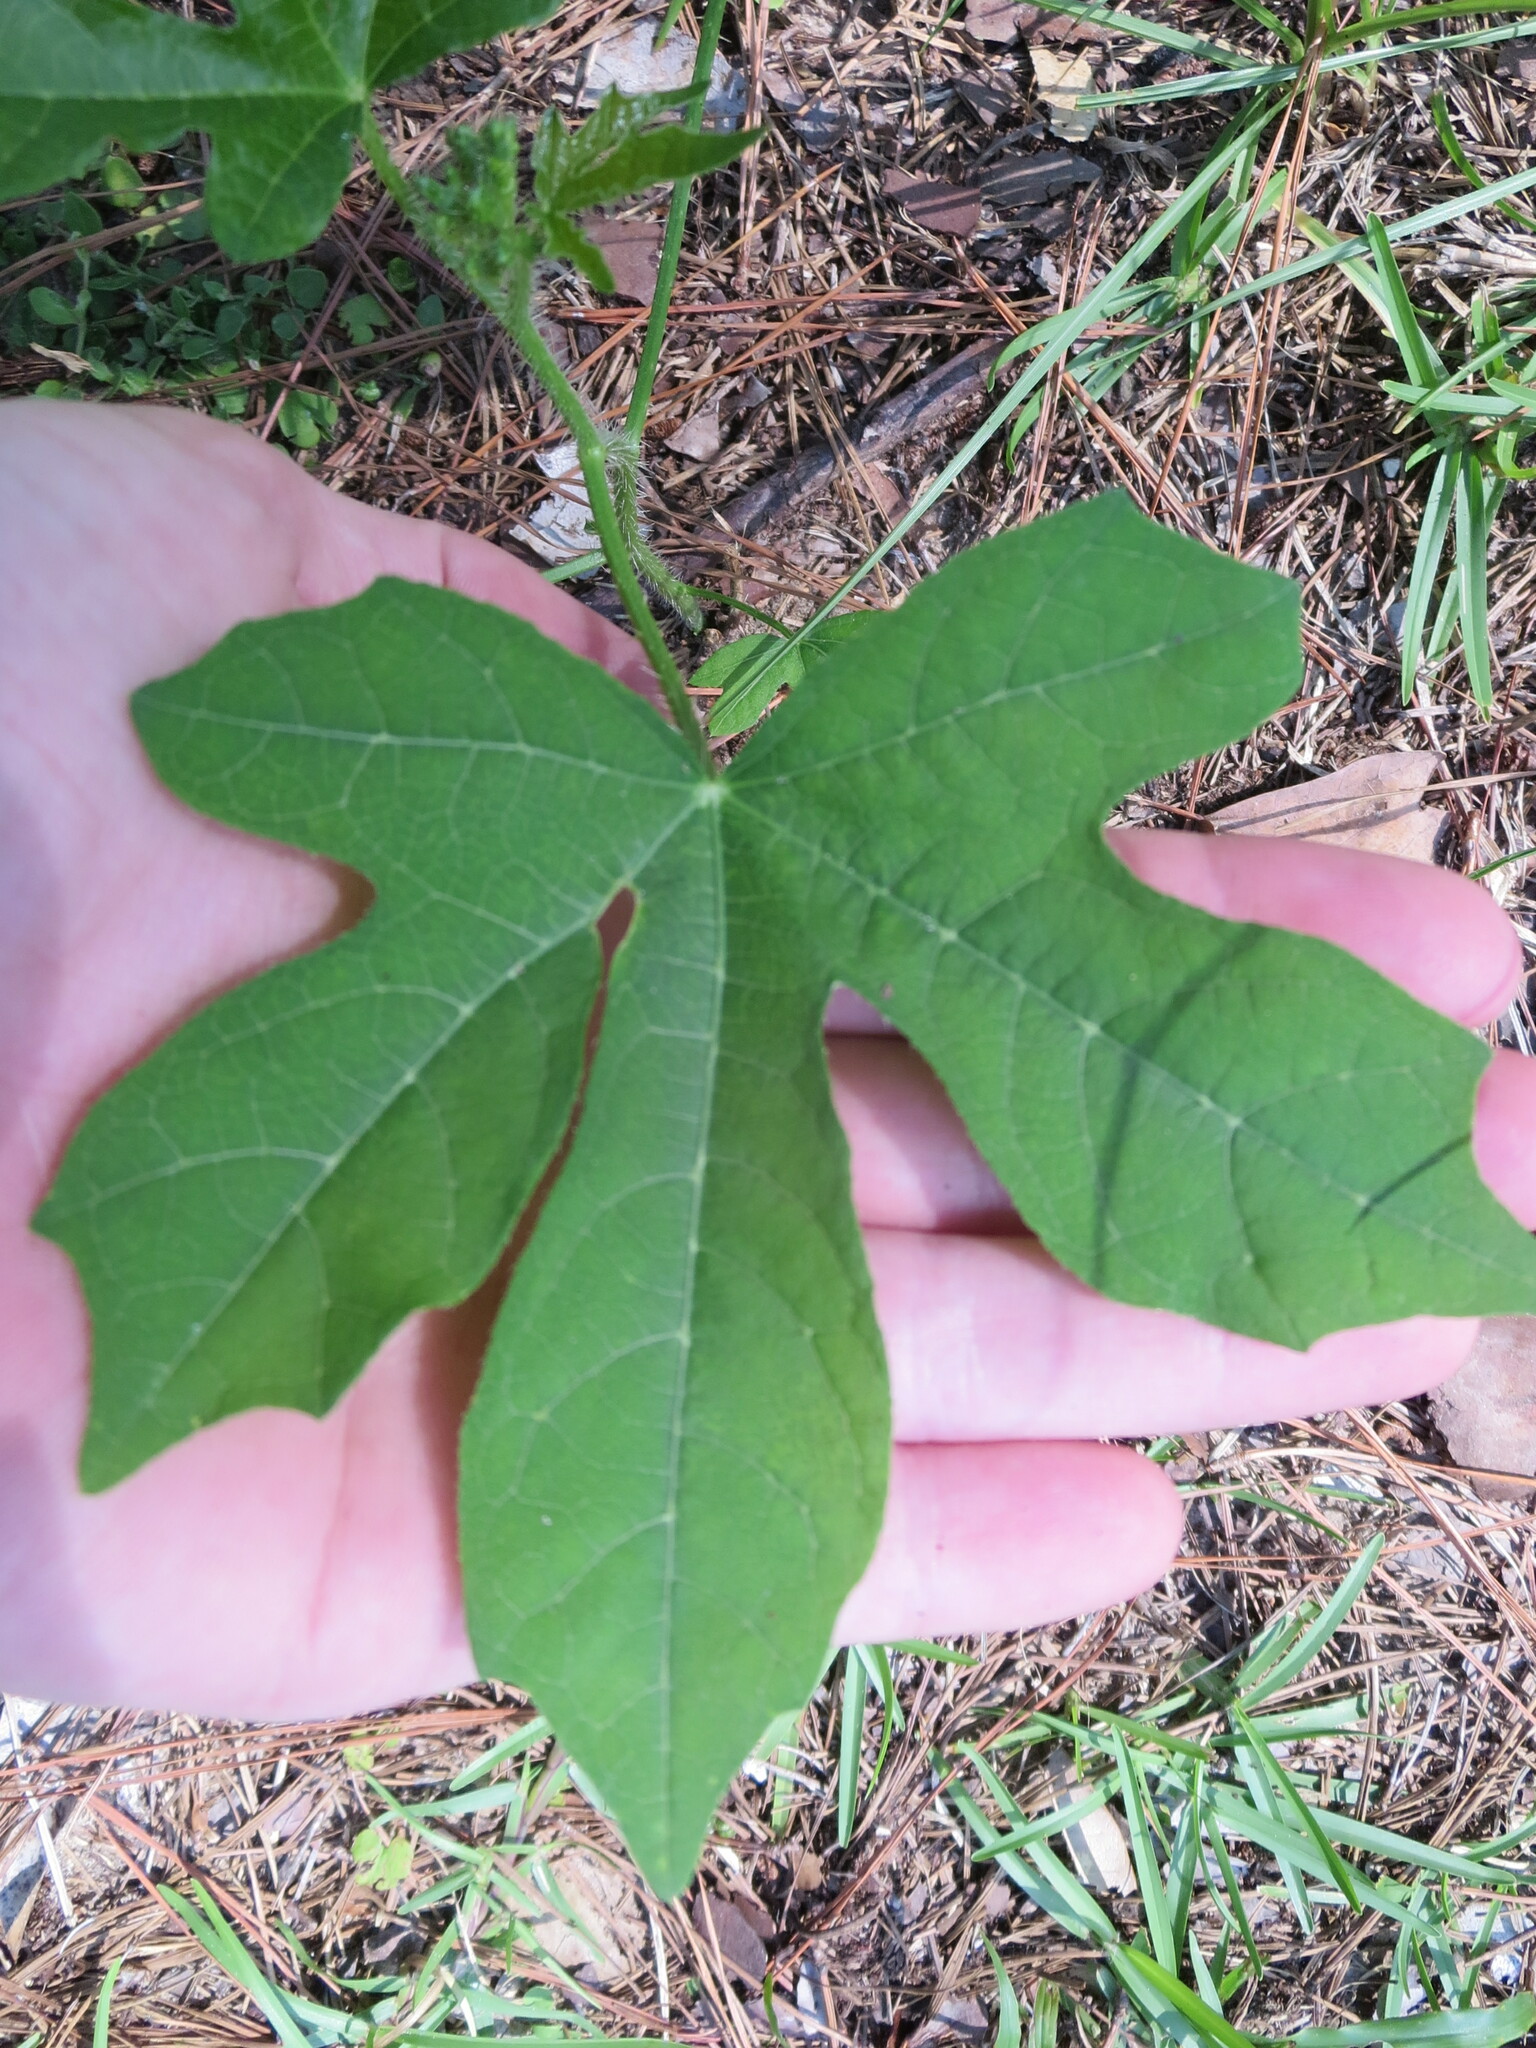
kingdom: Plantae
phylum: Tracheophyta
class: Magnoliopsida
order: Malpighiales
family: Euphorbiaceae
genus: Cnidoscolus
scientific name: Cnidoscolus stimulosus
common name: Bull-nettle
